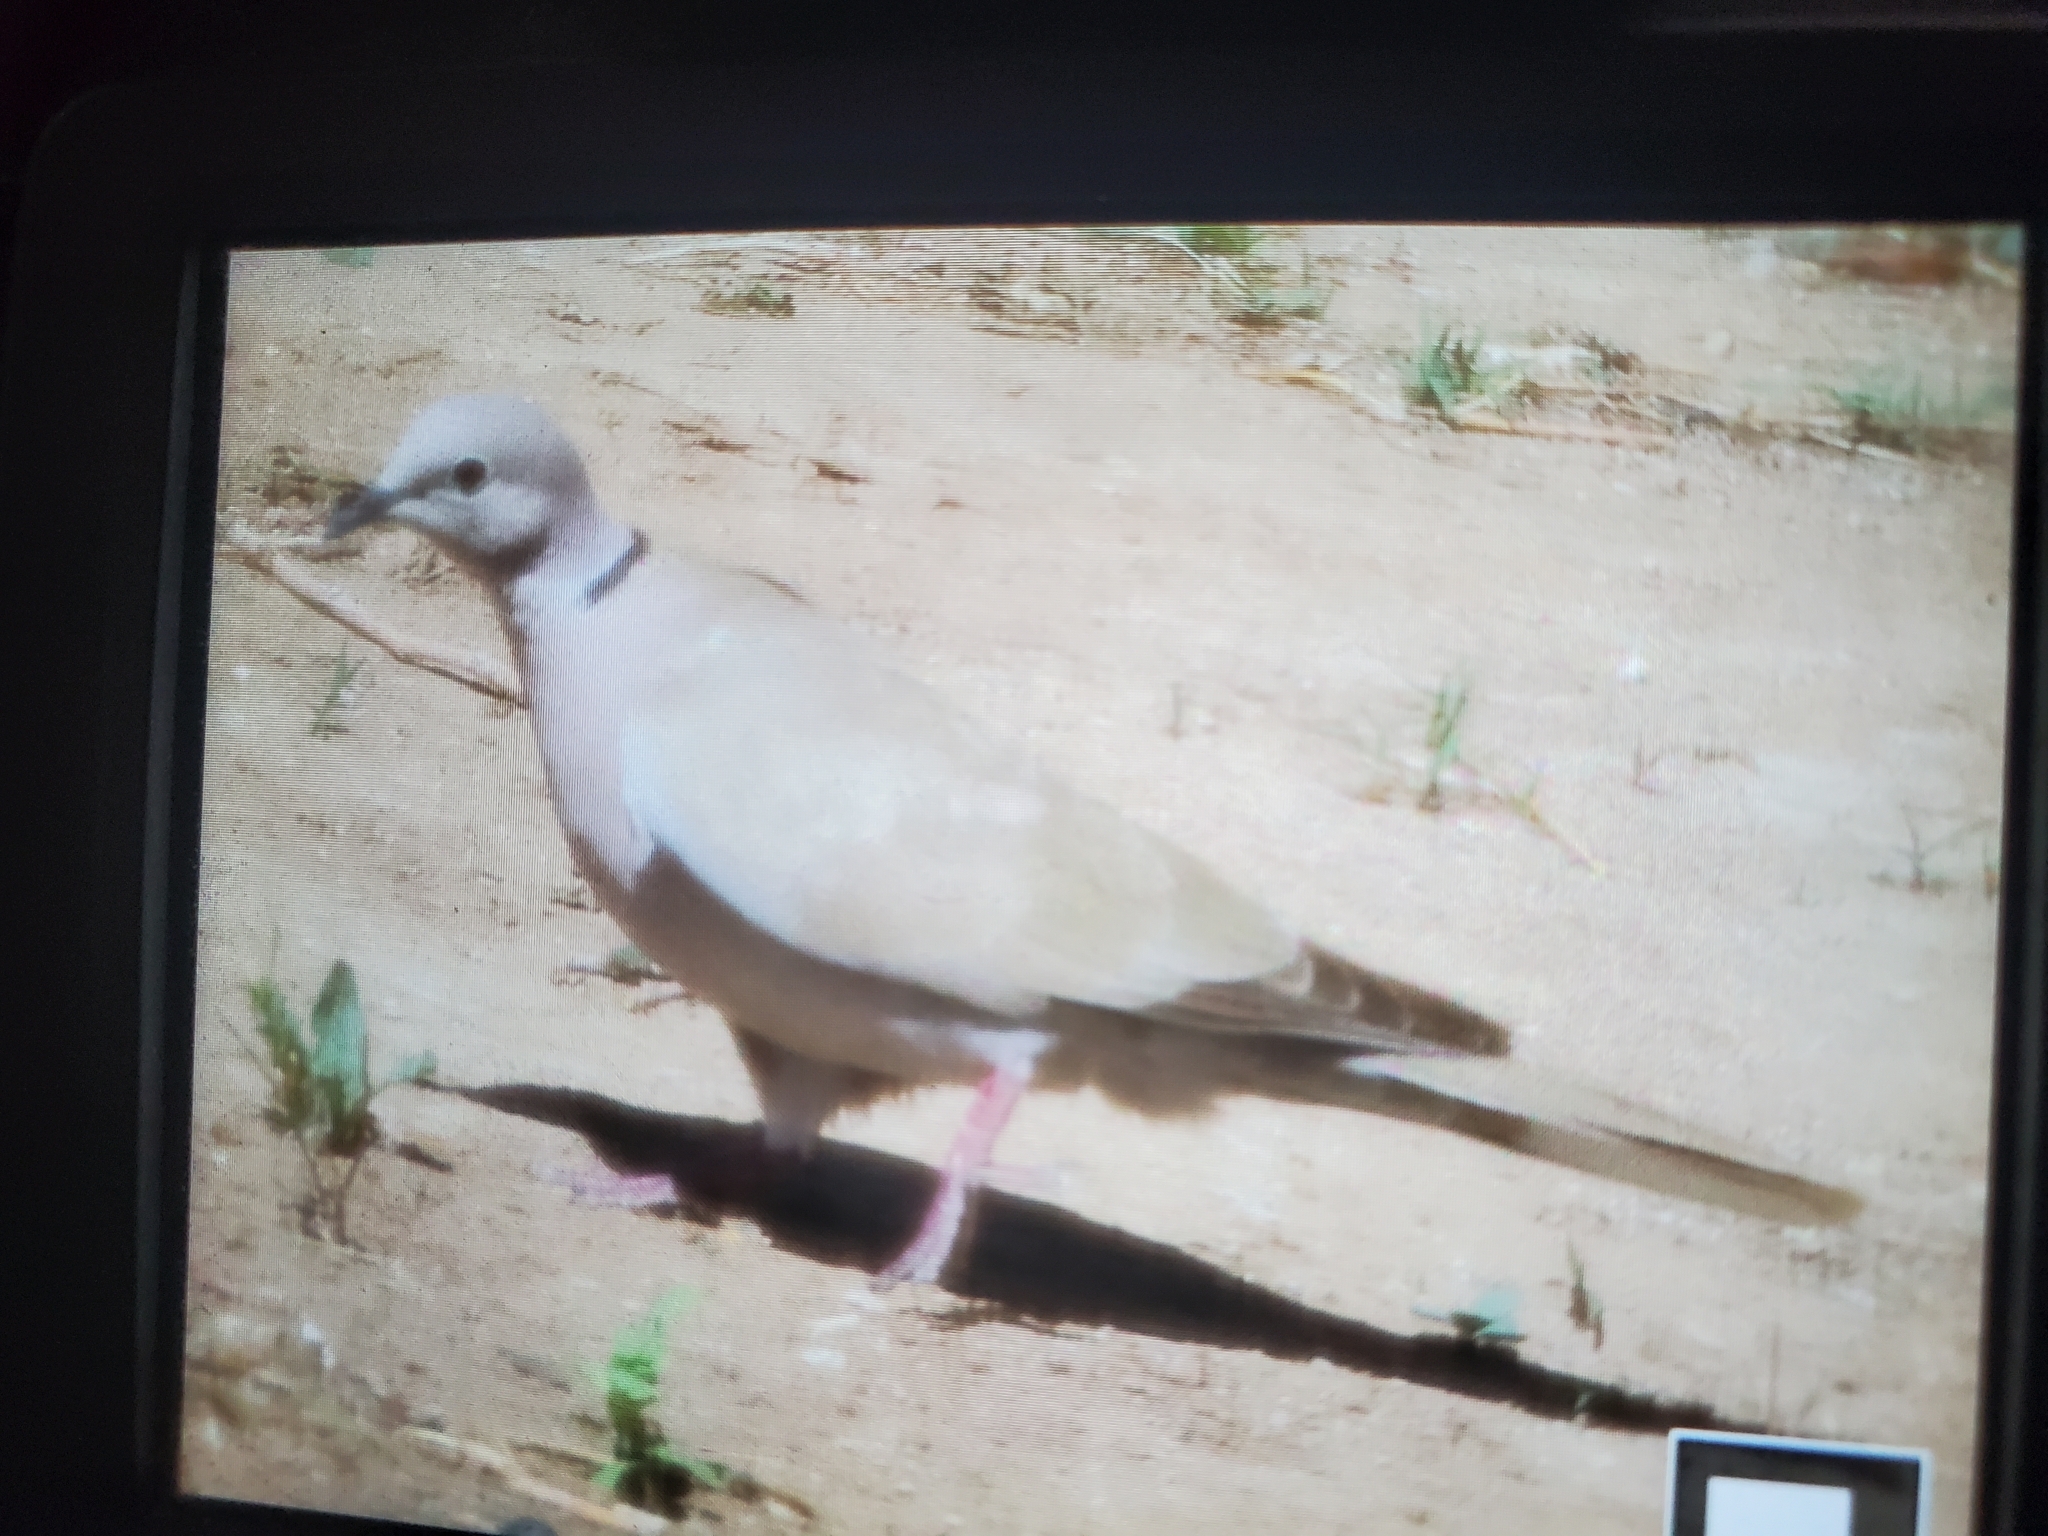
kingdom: Animalia
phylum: Chordata
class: Aves
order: Columbiformes
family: Columbidae
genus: Streptopelia
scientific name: Streptopelia decaocto
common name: Eurasian collared dove
